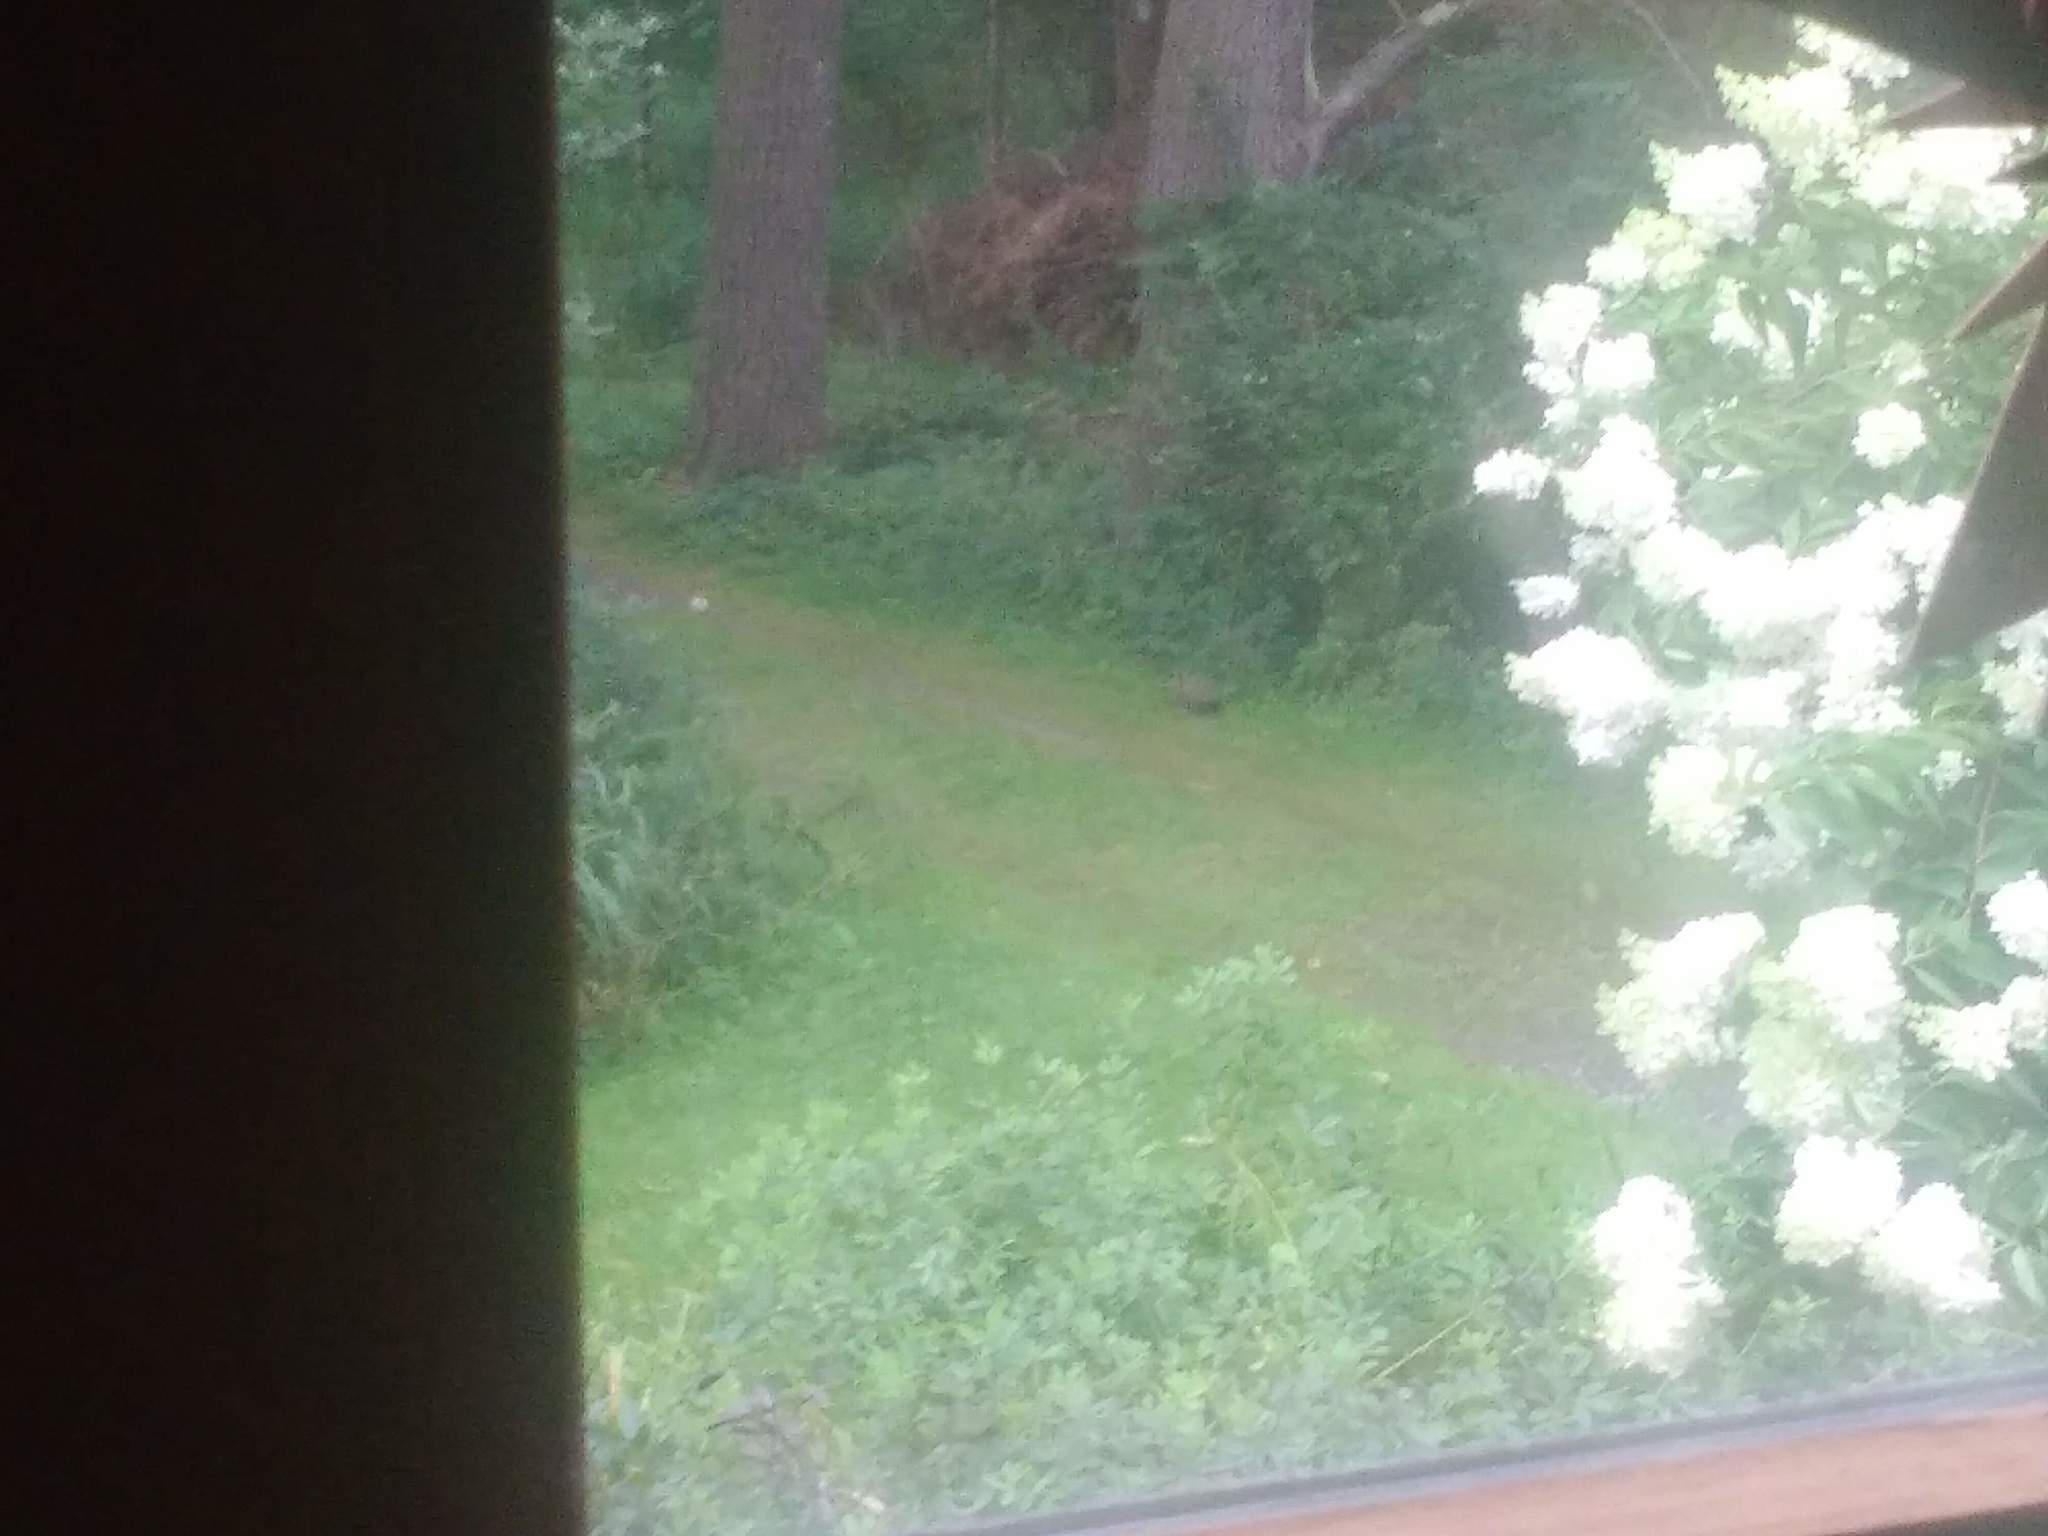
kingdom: Animalia
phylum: Chordata
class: Mammalia
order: Rodentia
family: Sciuridae
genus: Marmota
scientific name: Marmota monax
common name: Groundhog
